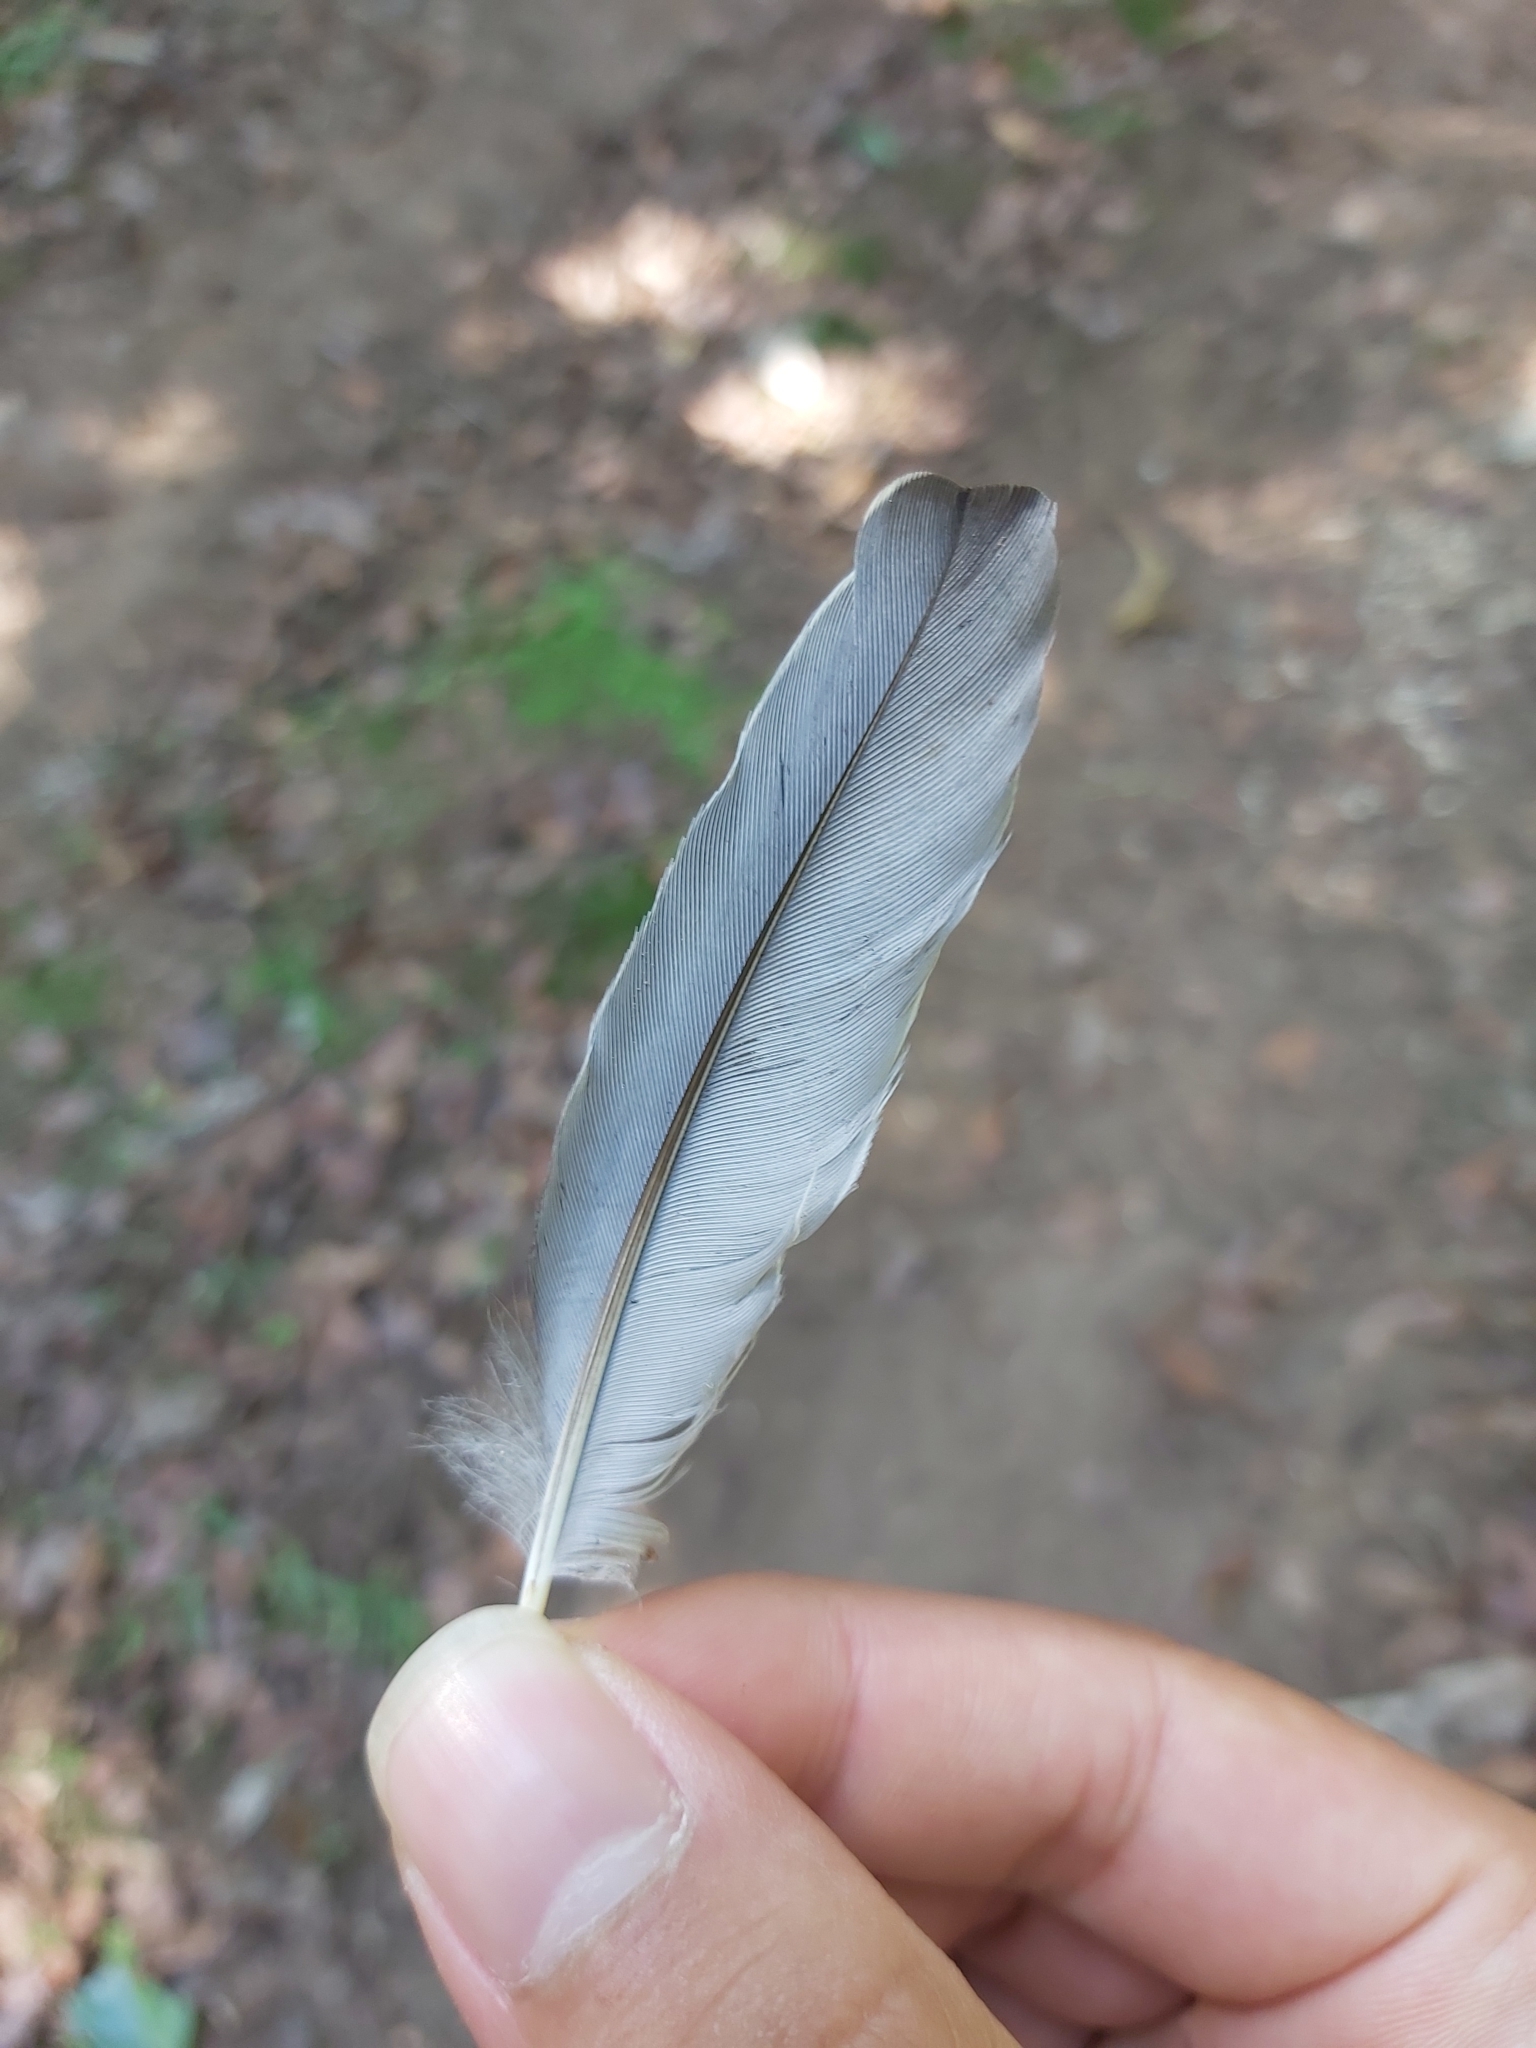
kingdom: Animalia
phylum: Chordata
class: Aves
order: Passeriformes
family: Campephagidae
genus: Coracina
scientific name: Coracina papuensis
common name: White-bellied cuckooshrike
